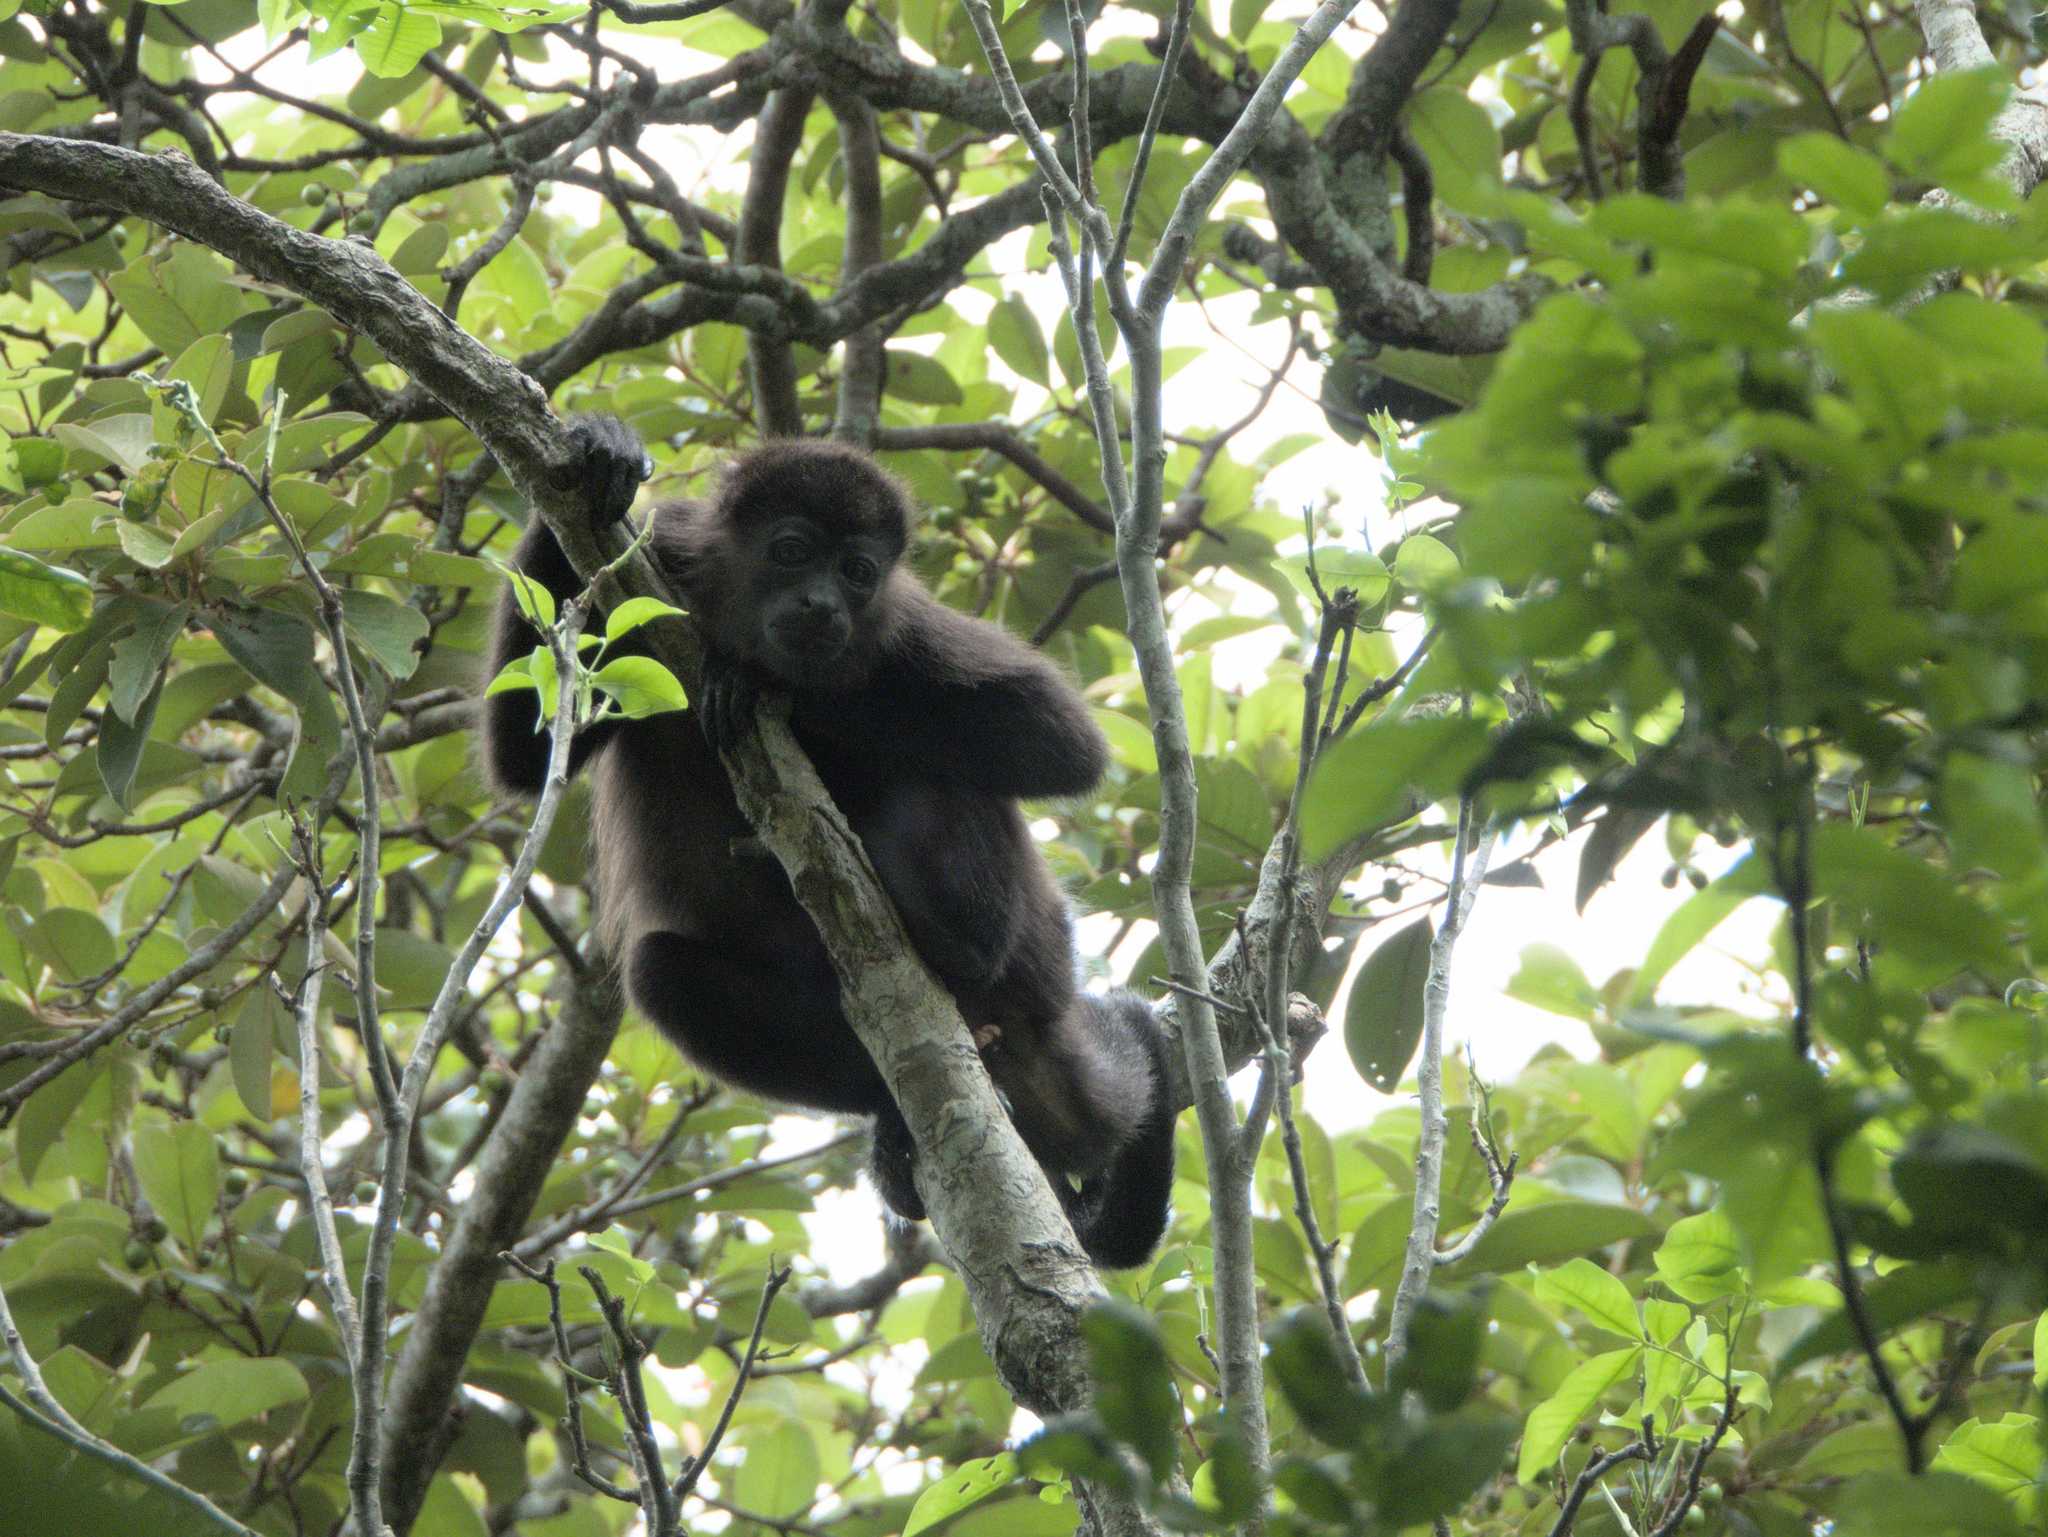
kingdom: Animalia
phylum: Chordata
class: Mammalia
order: Primates
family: Atelidae
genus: Alouatta
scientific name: Alouatta palliata
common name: Mantled howler
